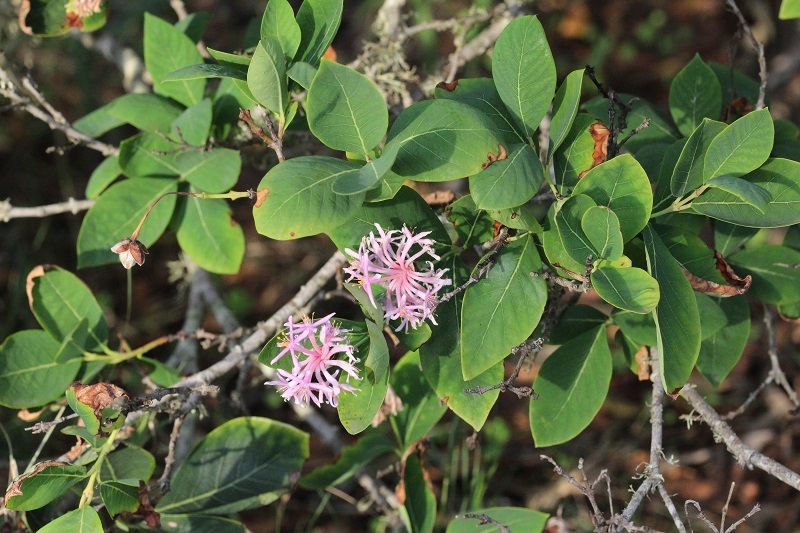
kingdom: Plantae
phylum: Tracheophyta
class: Magnoliopsida
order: Malvales
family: Thymelaeaceae
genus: Dais
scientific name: Dais cotinifolia
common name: Pompon tree
